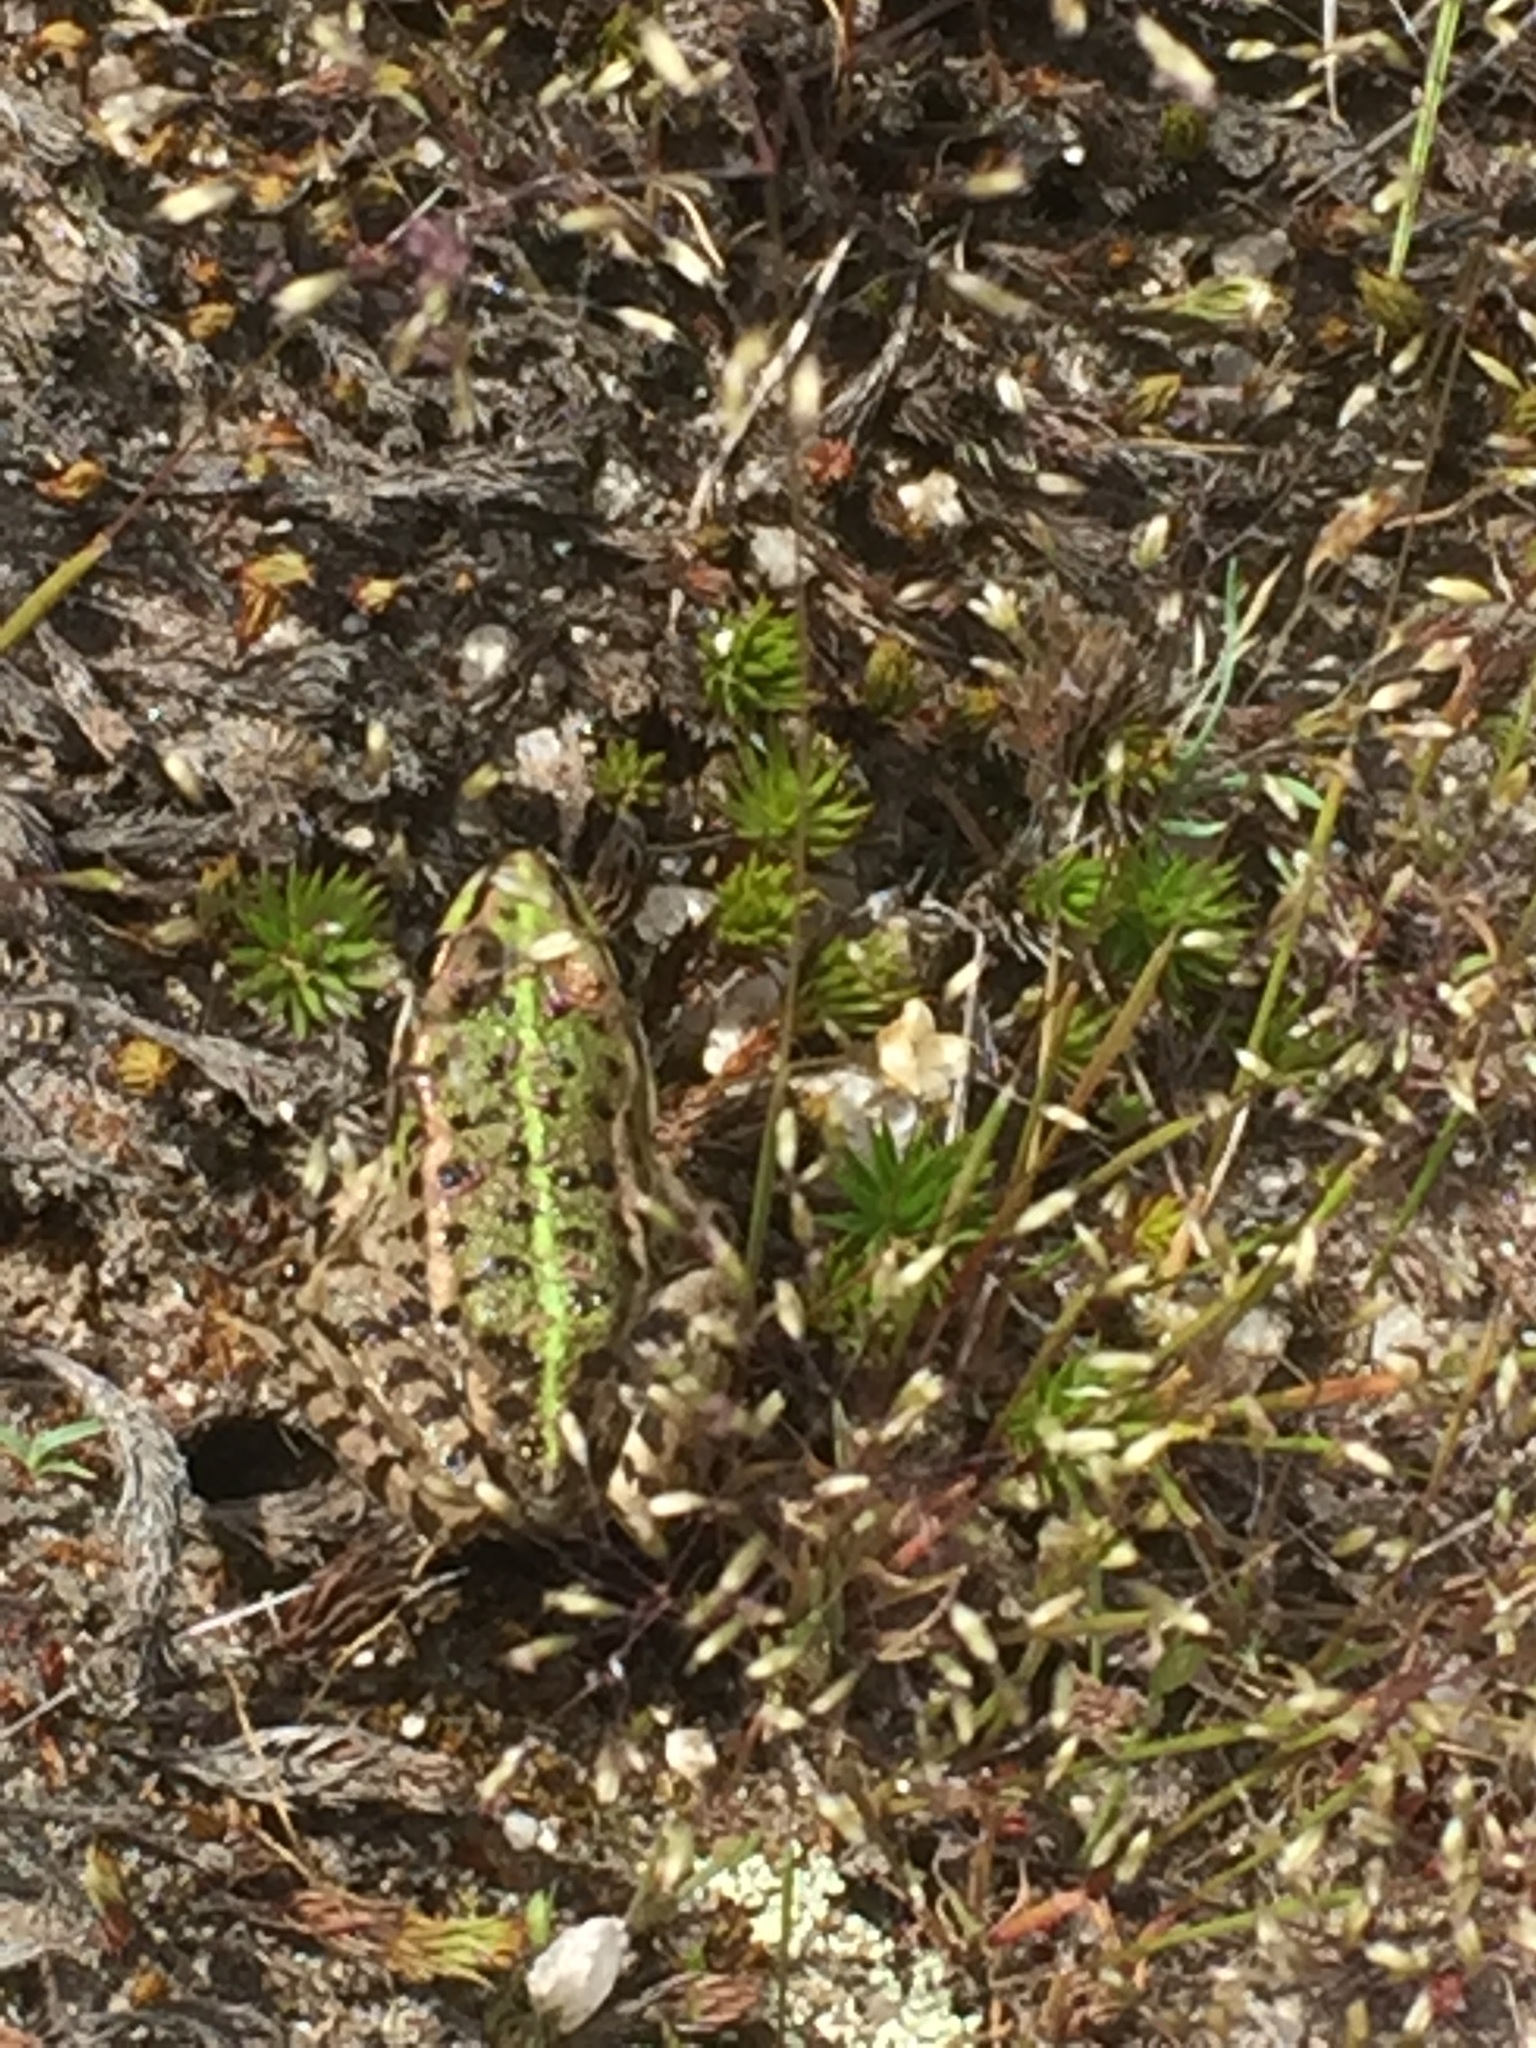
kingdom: Animalia
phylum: Chordata
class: Amphibia
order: Anura
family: Ranidae
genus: Pelophylax
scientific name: Pelophylax perezi
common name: Perez's frog
